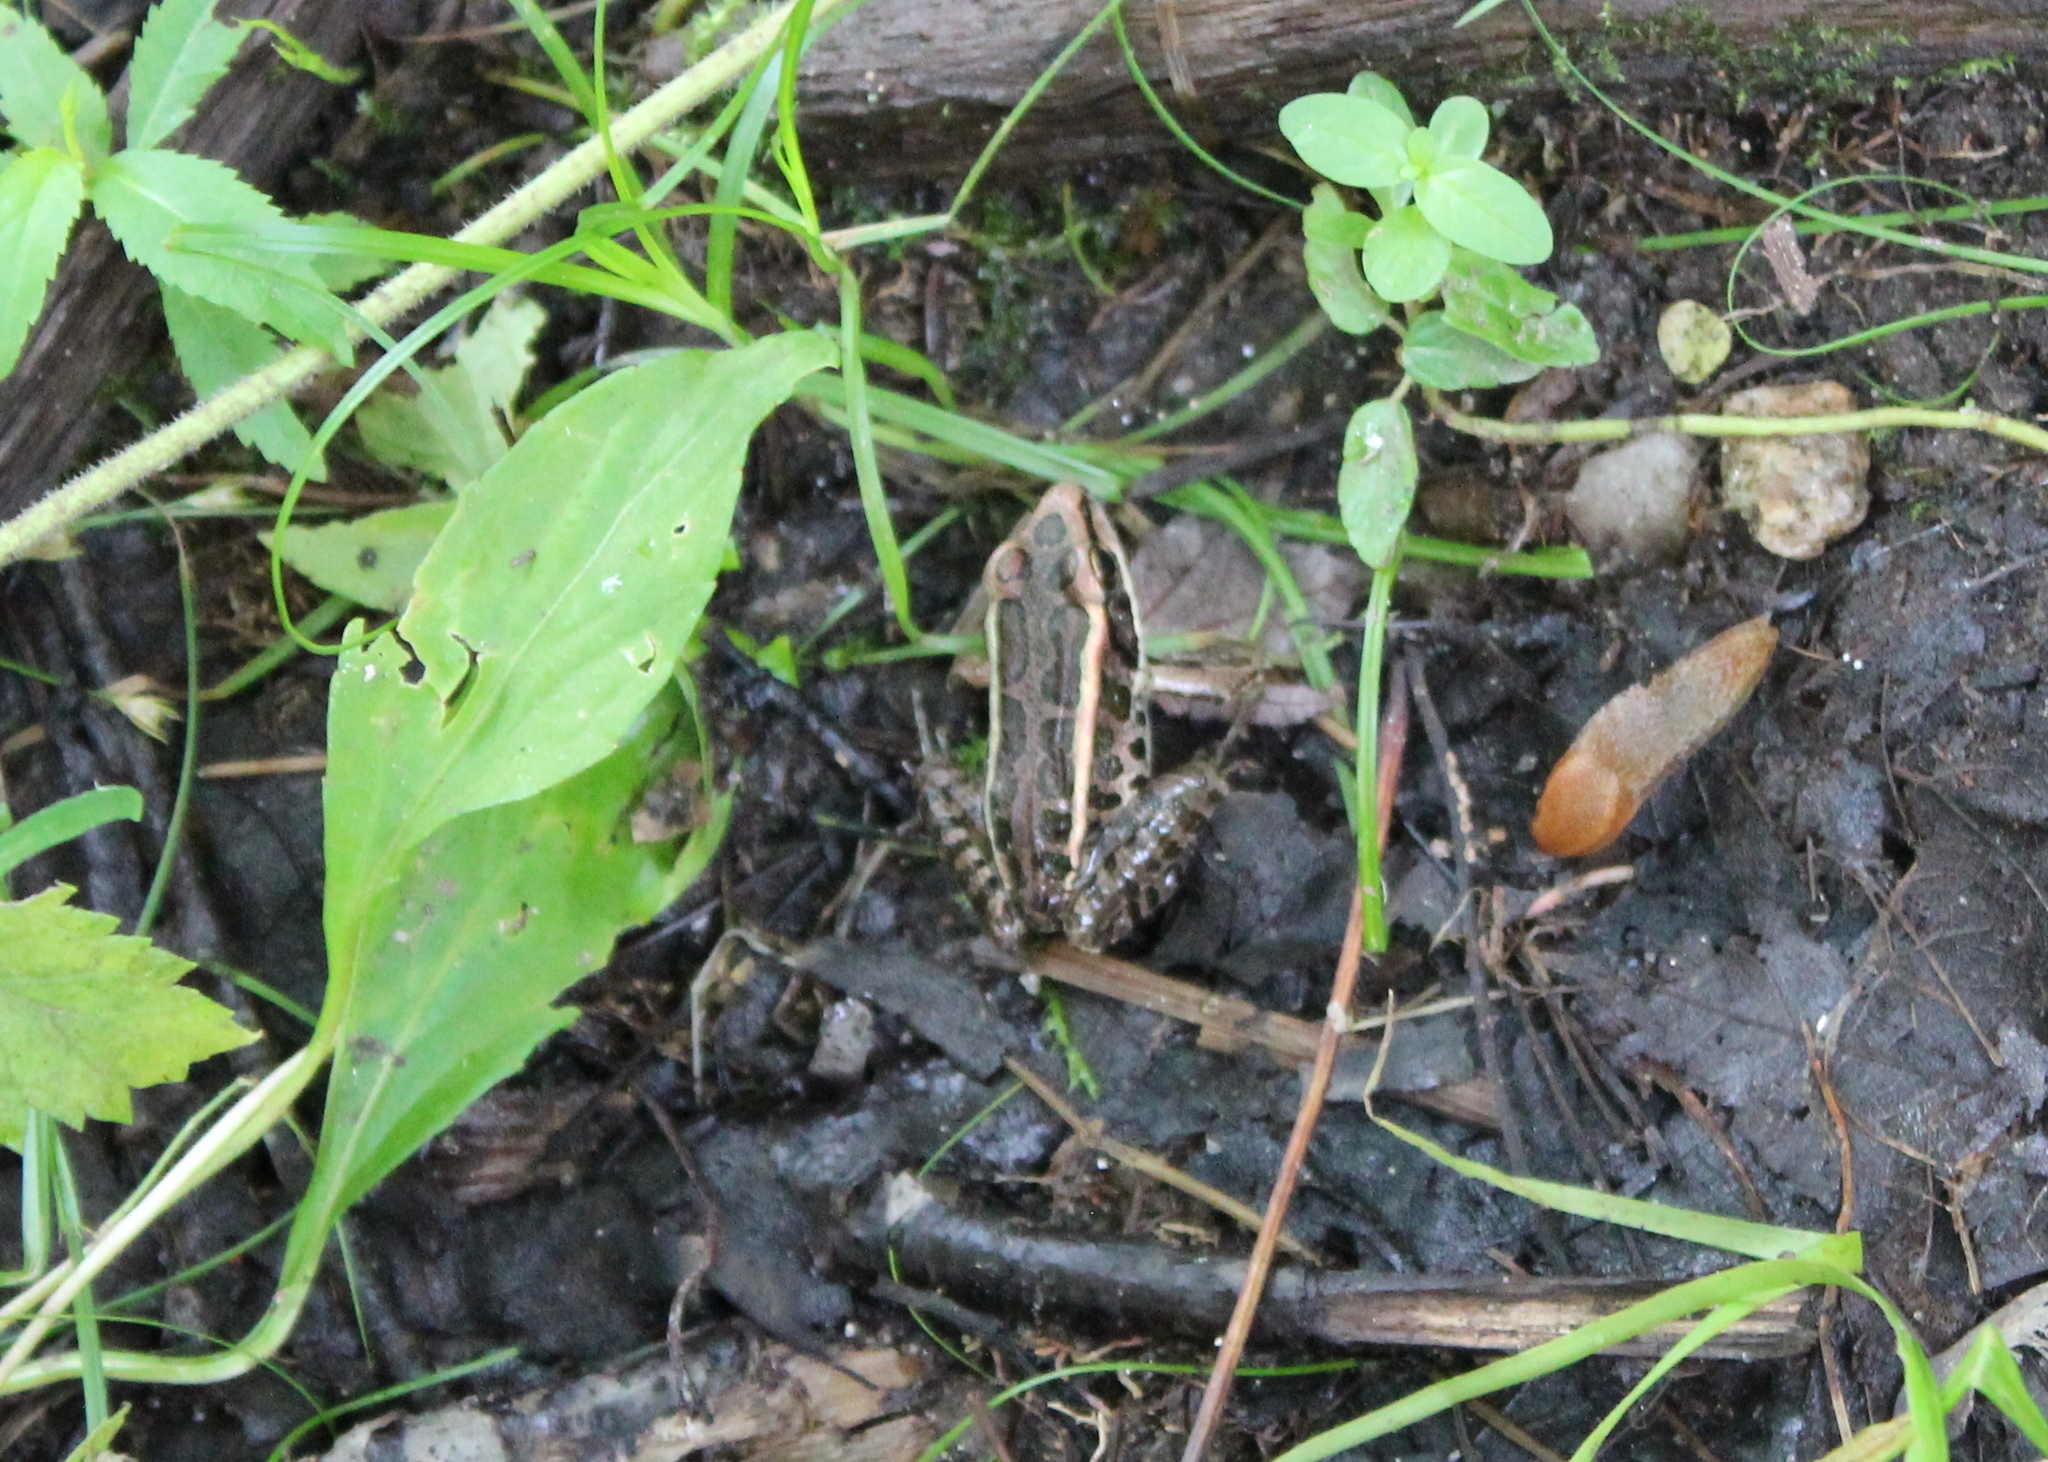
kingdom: Animalia
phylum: Chordata
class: Amphibia
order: Anura
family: Ranidae
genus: Lithobates
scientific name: Lithobates palustris
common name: Pickerel frog
